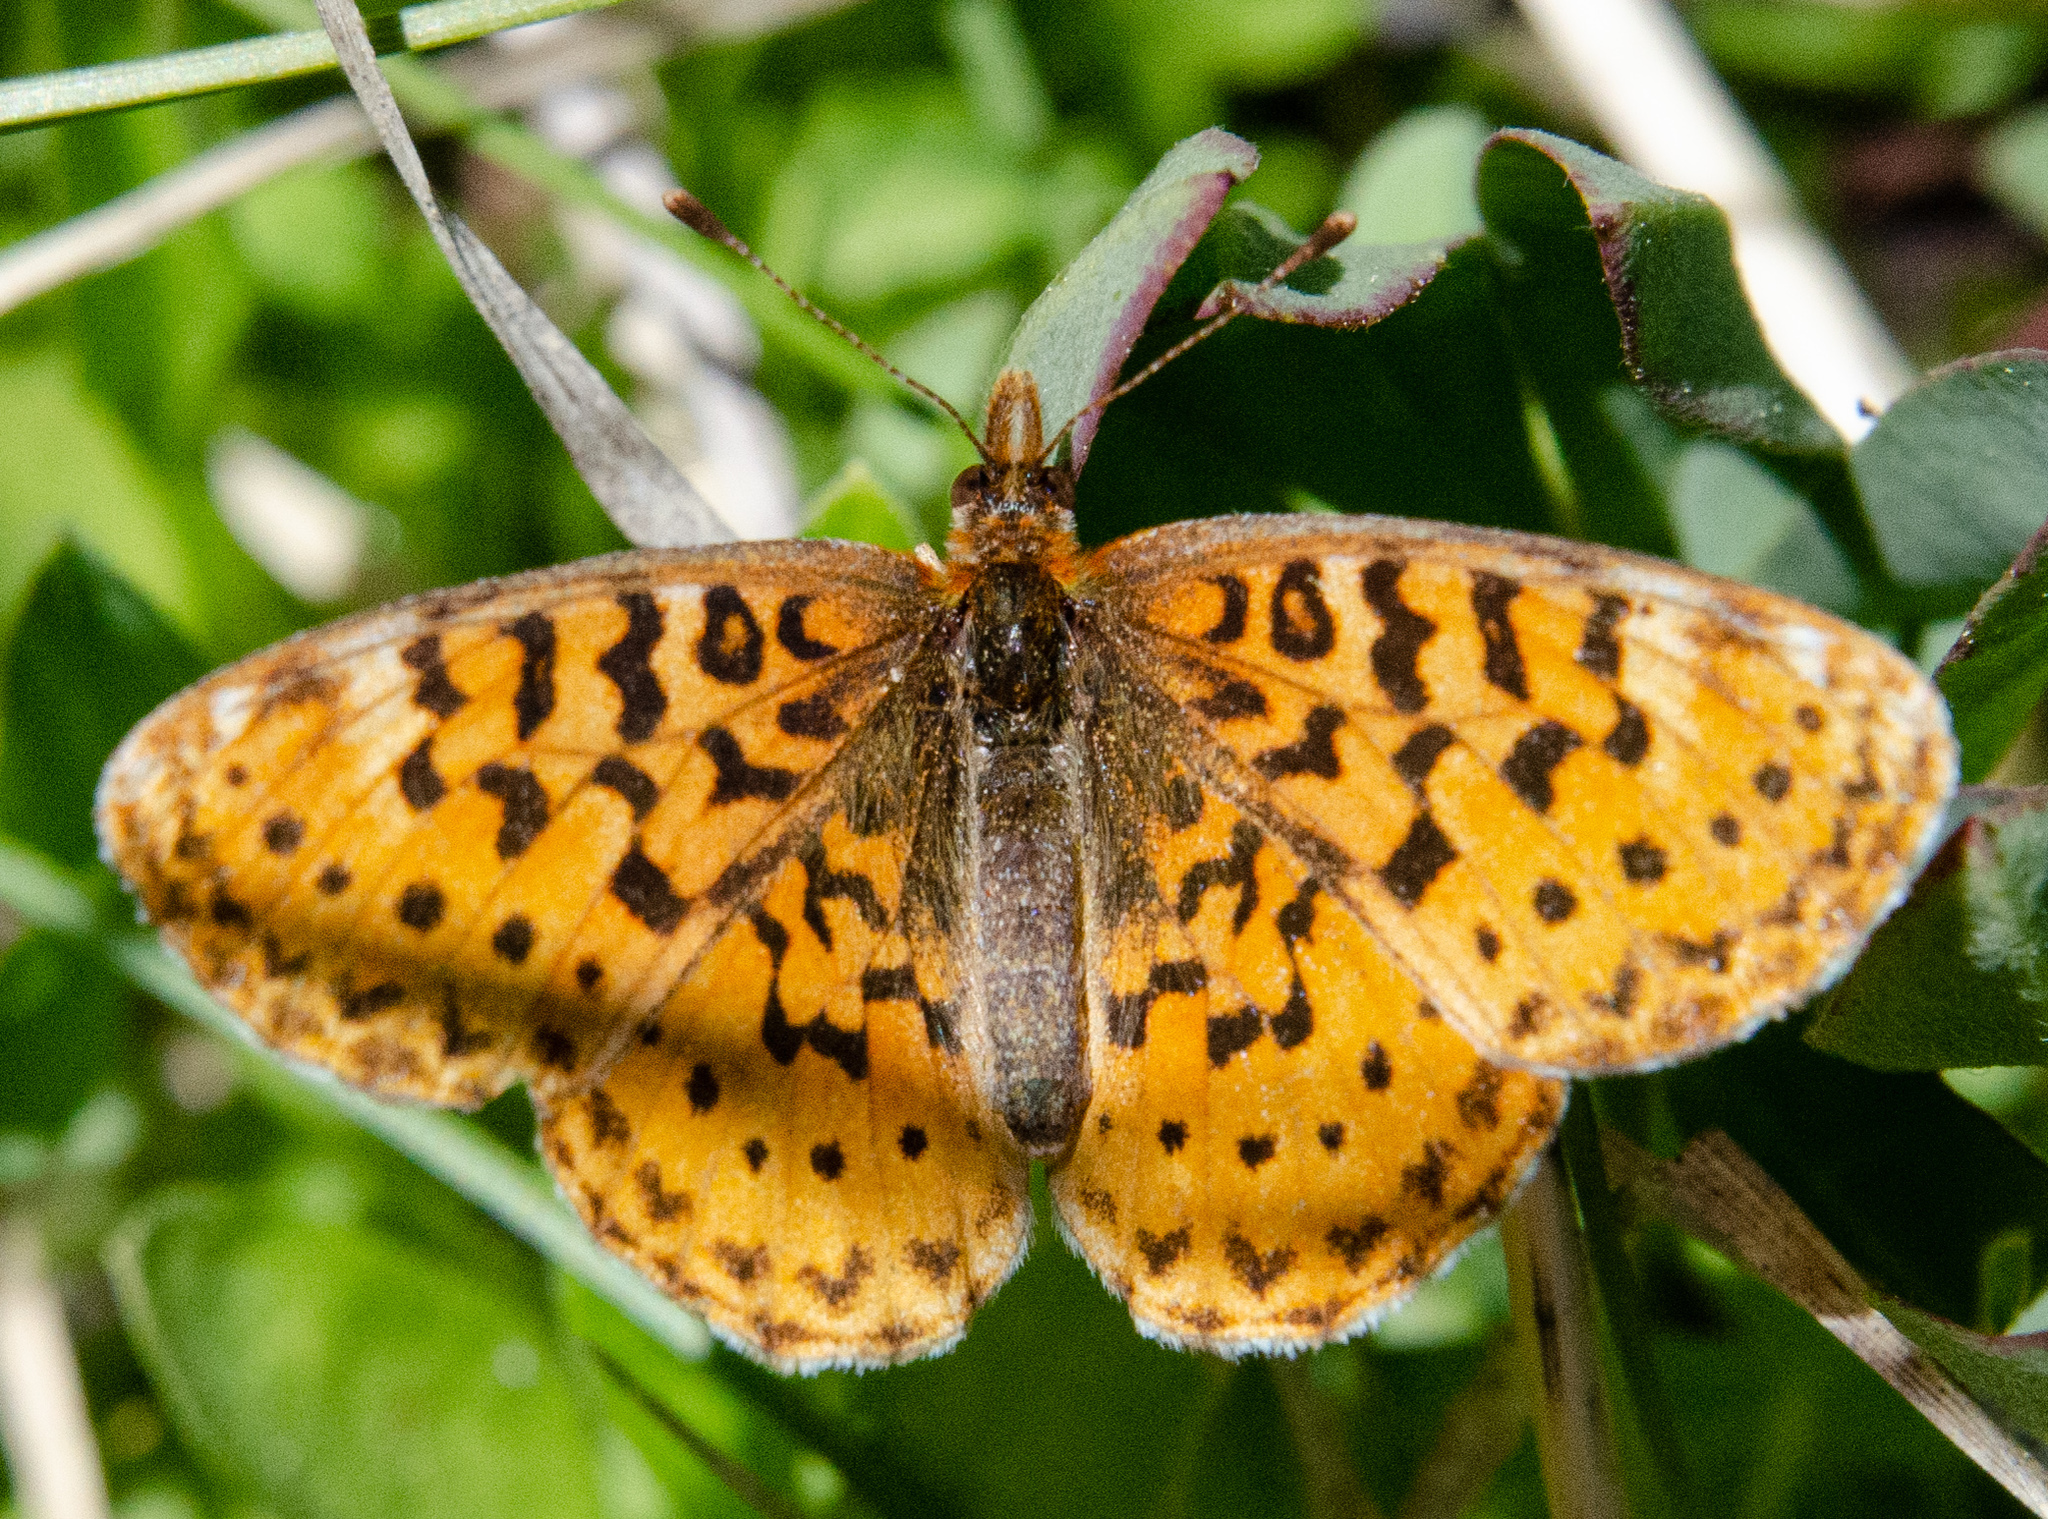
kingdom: Animalia
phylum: Arthropoda
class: Insecta
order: Lepidoptera
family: Nymphalidae
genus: Boloria
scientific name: Boloria epithore
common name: Pacific fritillary
